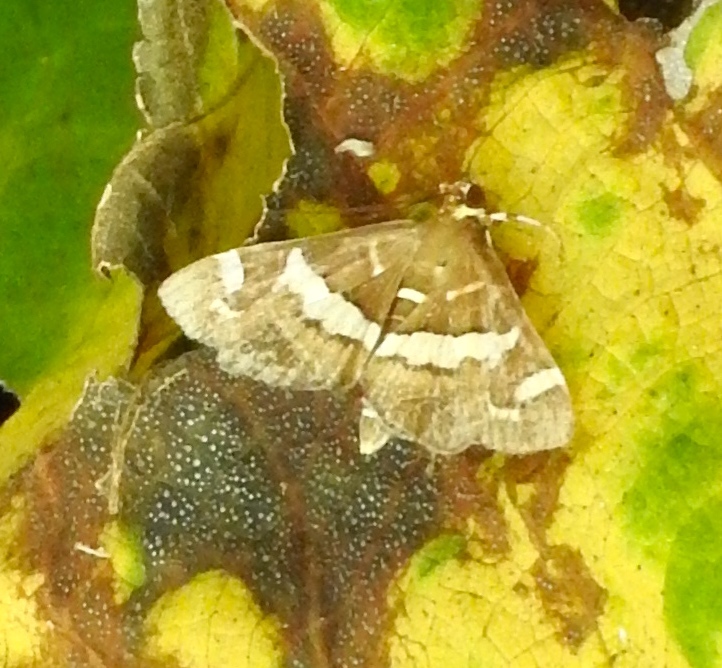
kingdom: Animalia
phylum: Arthropoda
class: Insecta
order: Lepidoptera
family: Crambidae
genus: Spoladea
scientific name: Spoladea recurvalis
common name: Beet webworm moth
